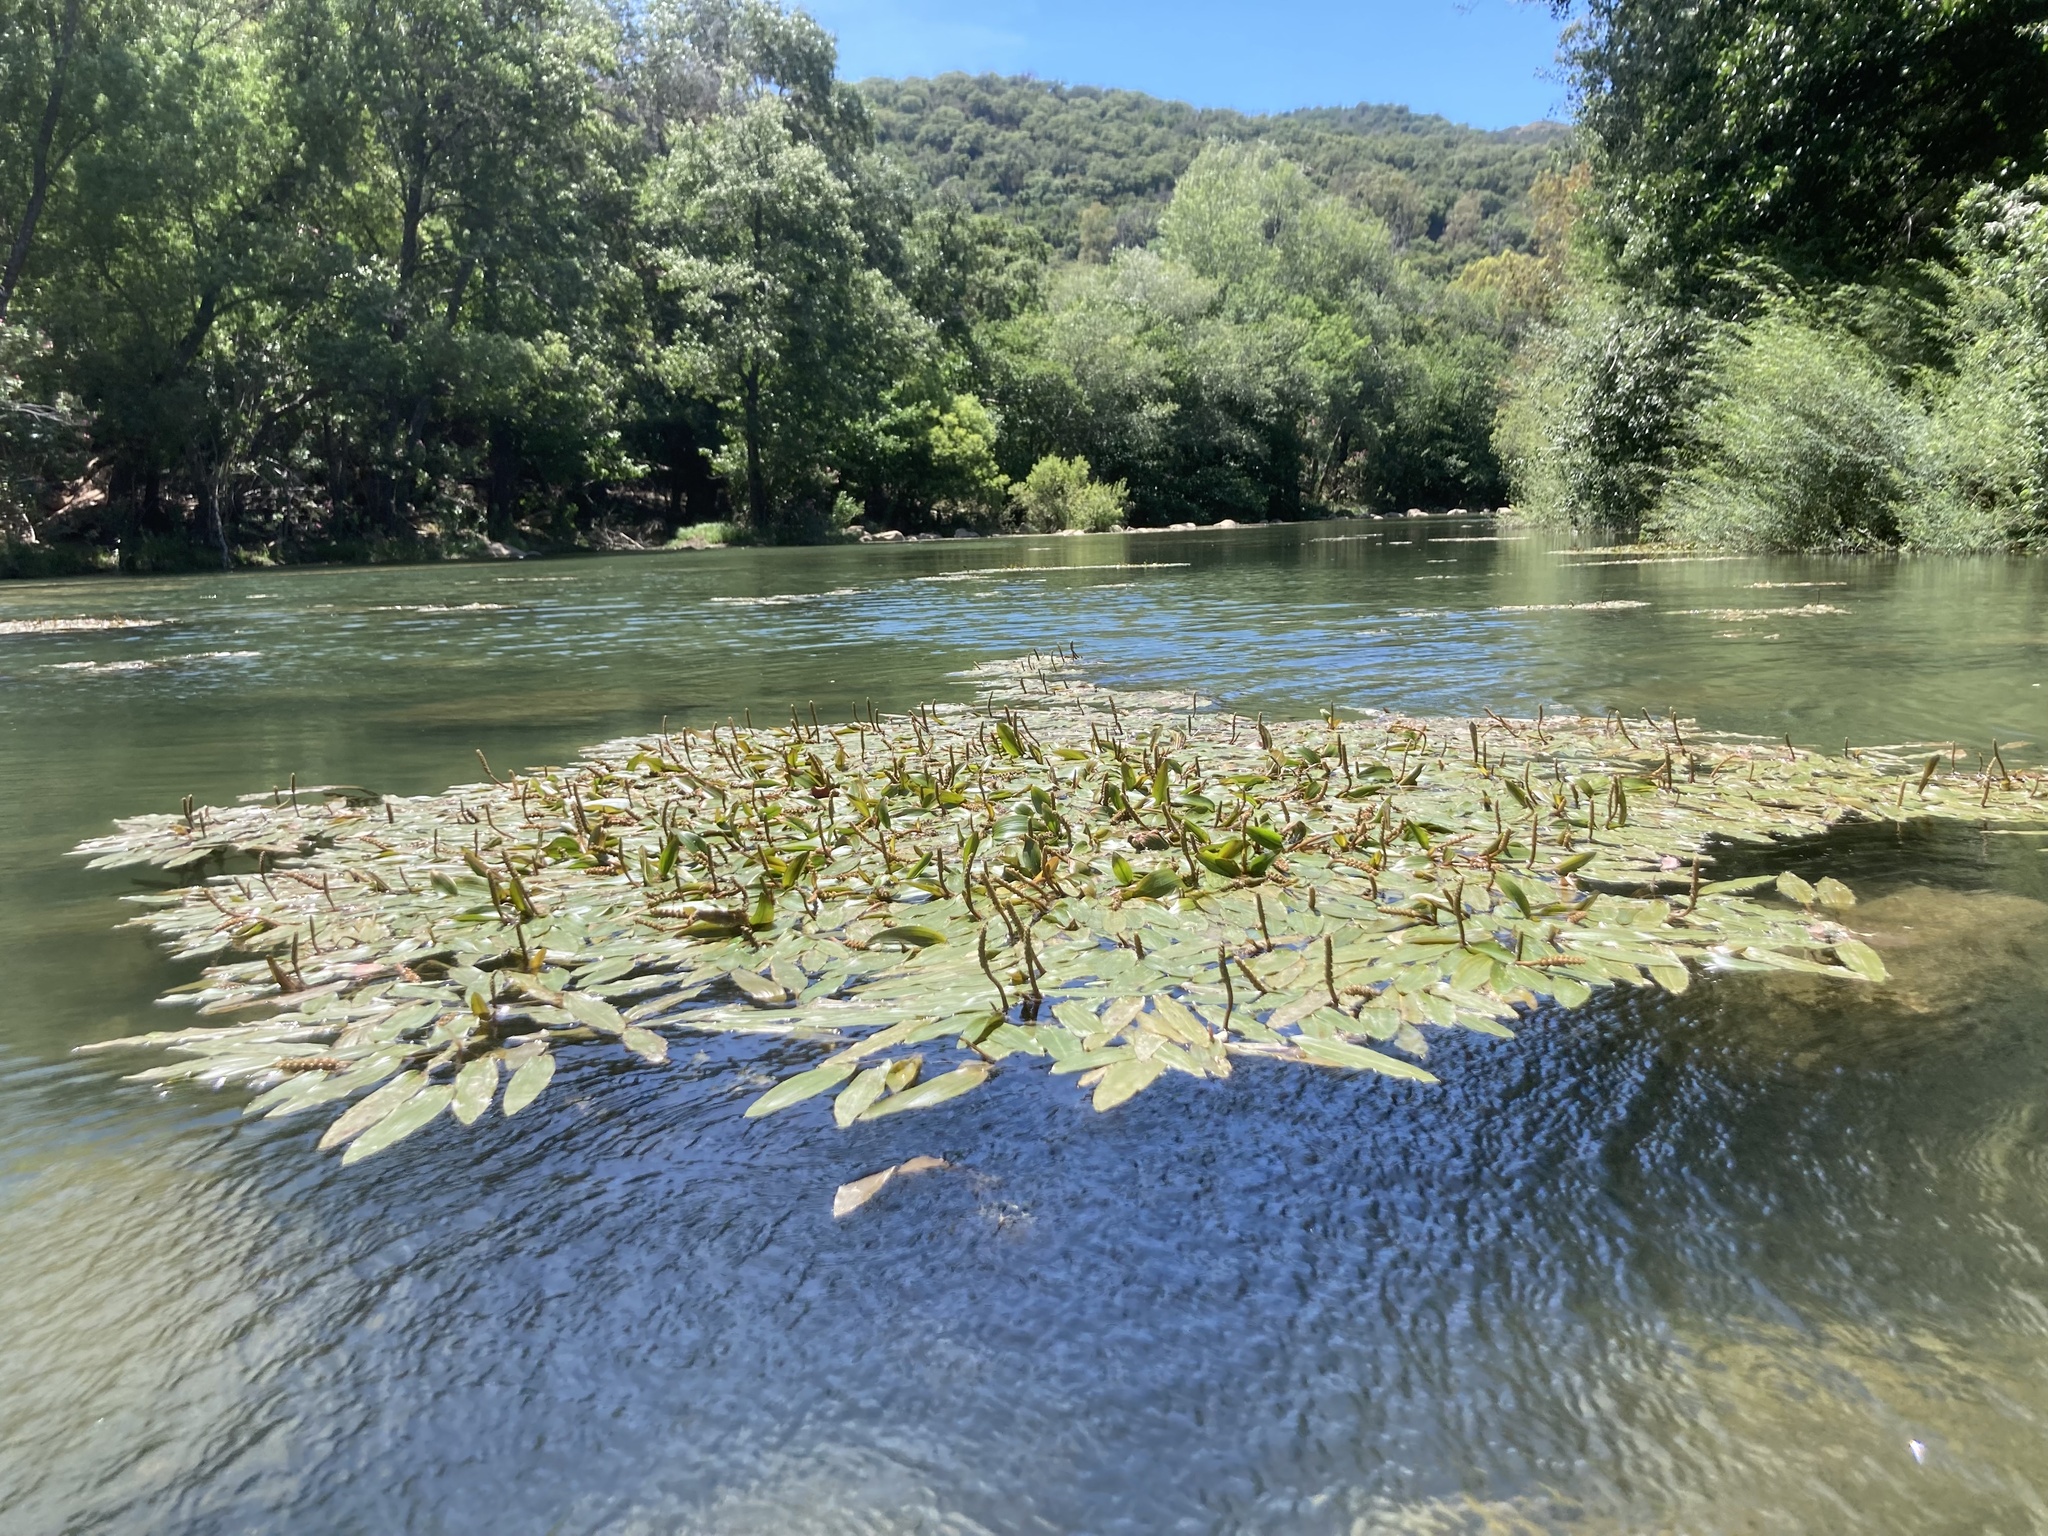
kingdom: Plantae
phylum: Tracheophyta
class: Liliopsida
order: Alismatales
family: Potamogetonaceae
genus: Potamogeton
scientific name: Potamogeton nodosus
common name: Loddon pondweed
